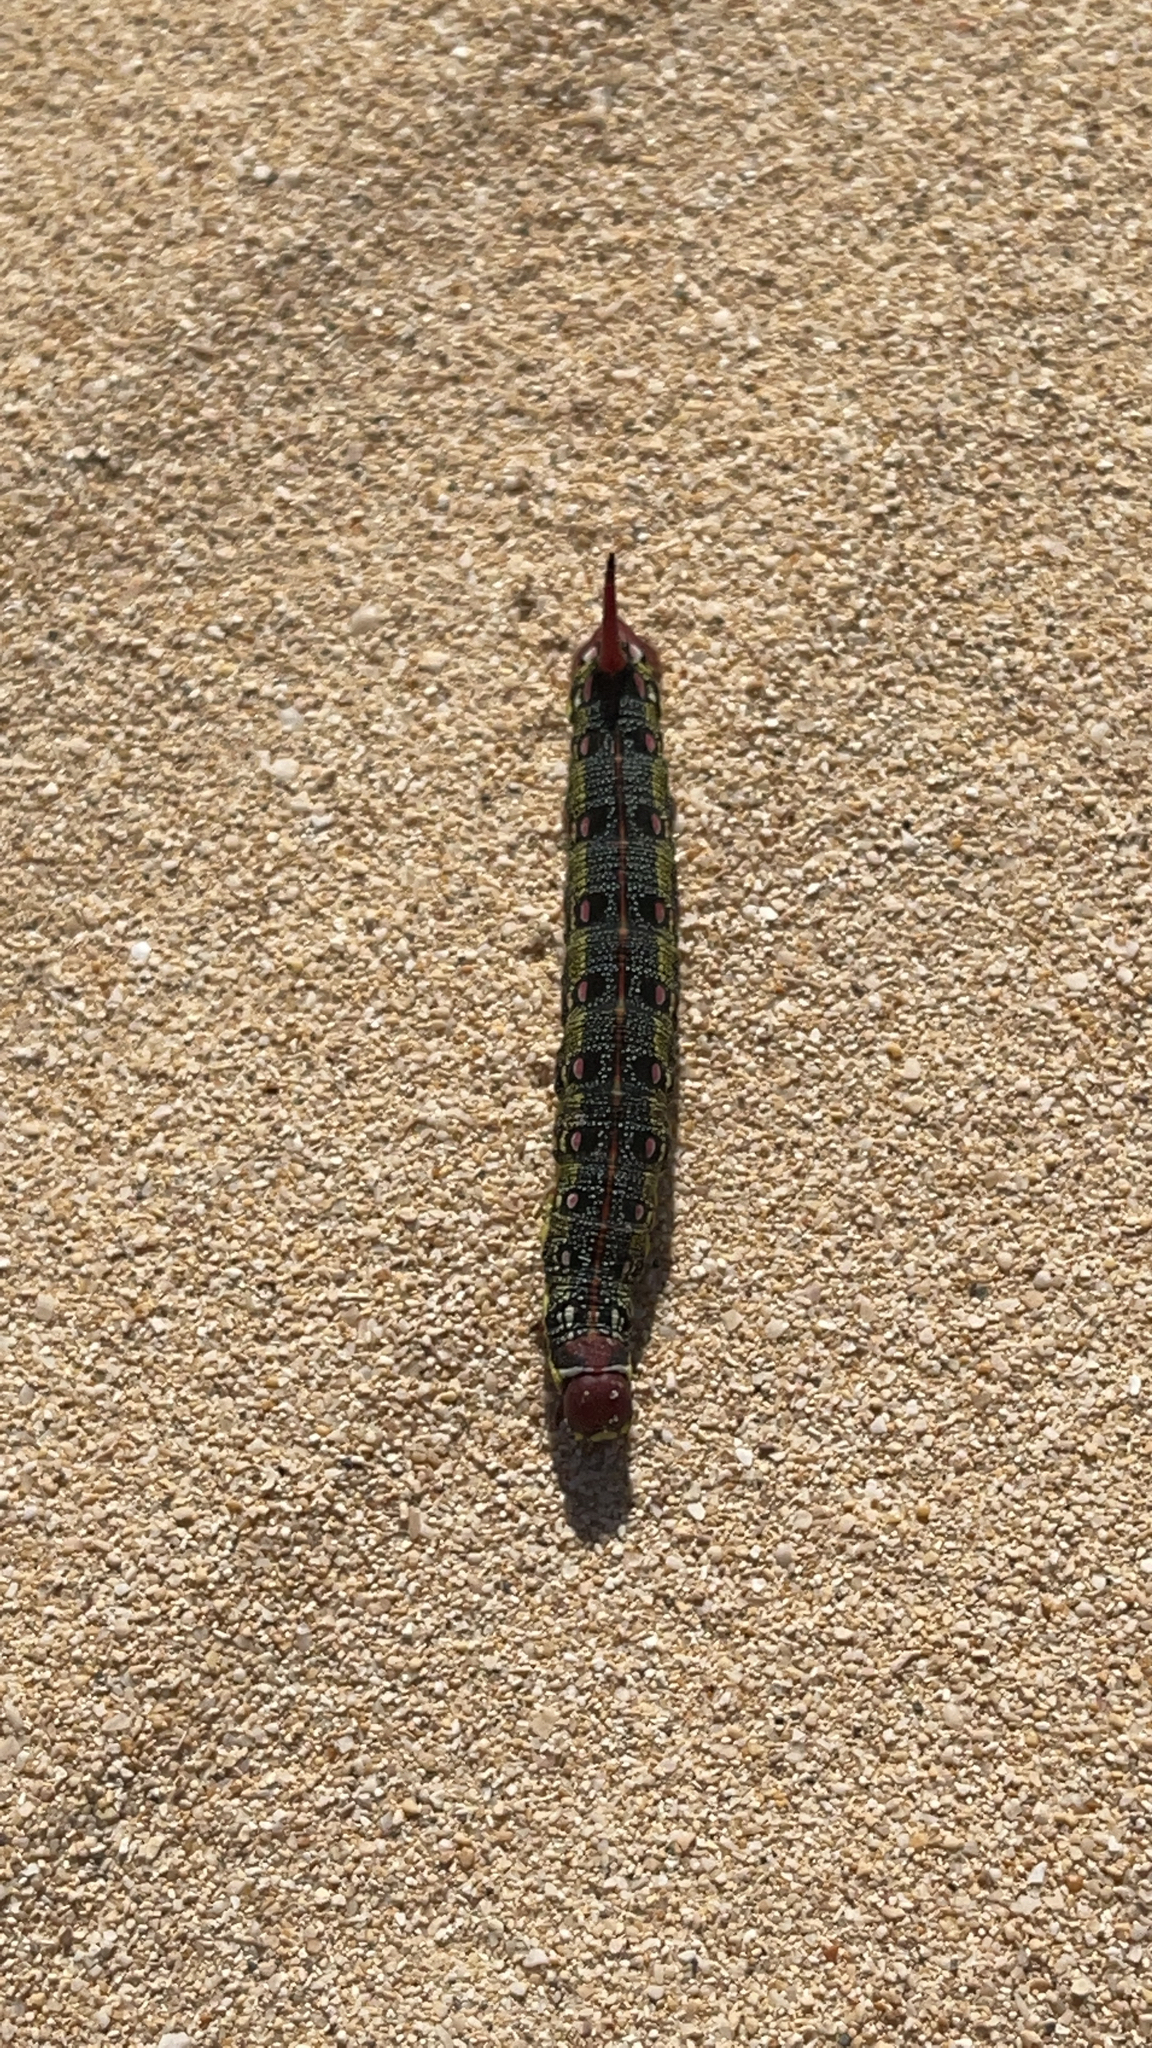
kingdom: Animalia
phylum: Arthropoda
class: Insecta
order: Lepidoptera
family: Sphingidae
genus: Hyles
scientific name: Hyles tithymali
